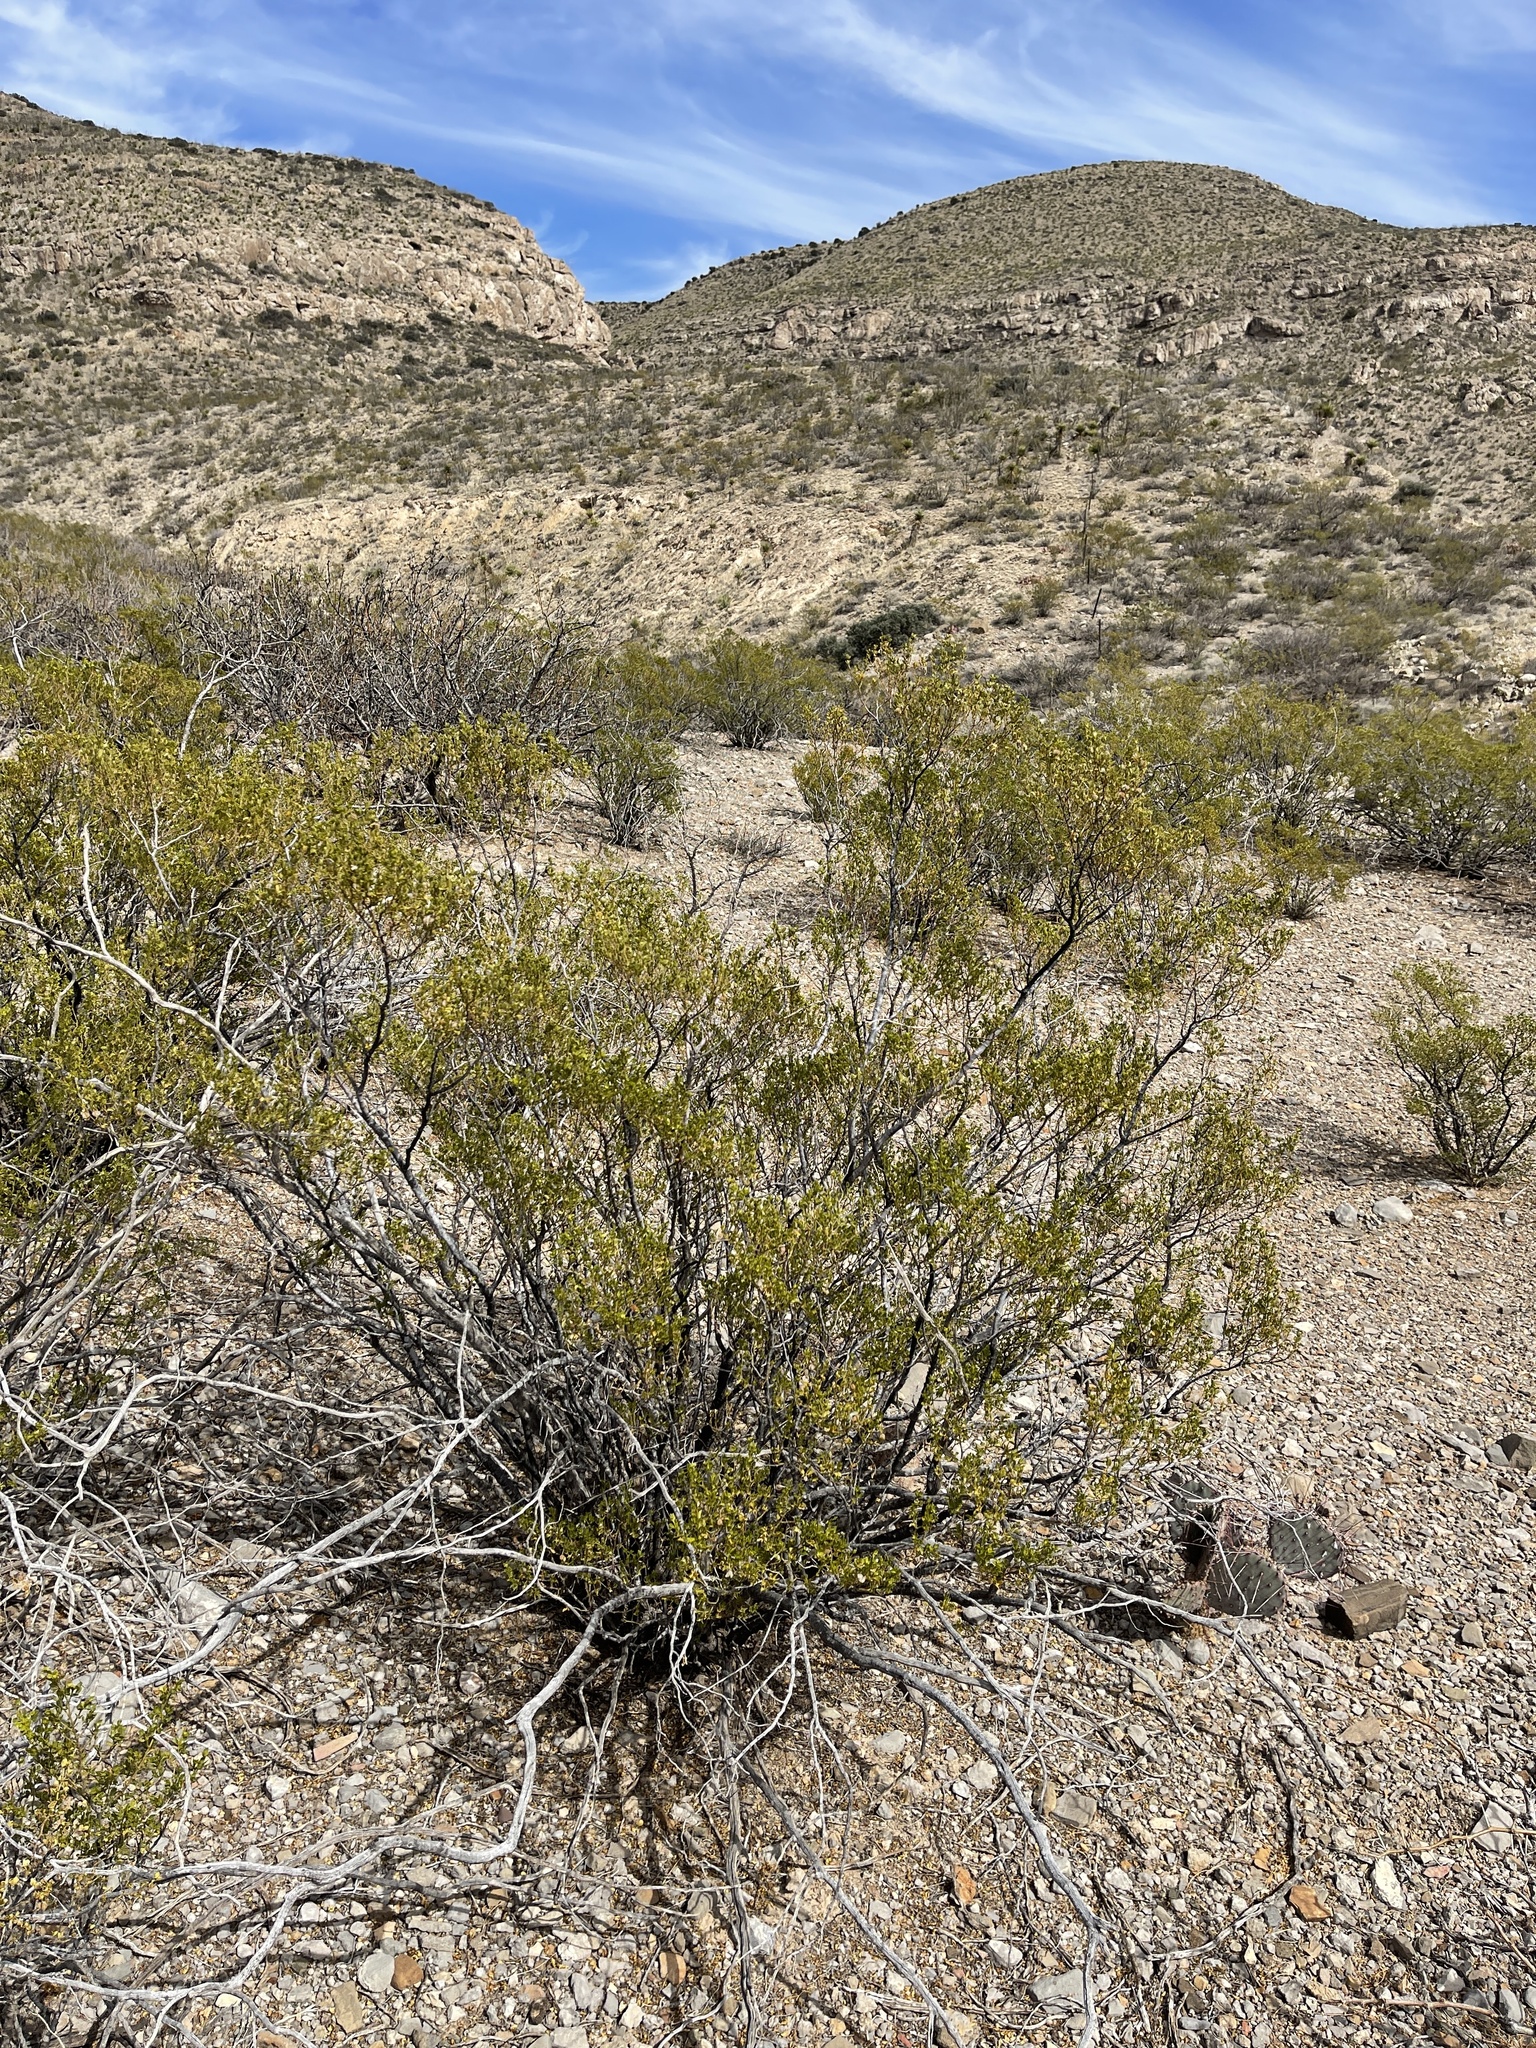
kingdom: Plantae
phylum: Tracheophyta
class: Magnoliopsida
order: Zygophyllales
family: Zygophyllaceae
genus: Larrea
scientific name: Larrea tridentata
